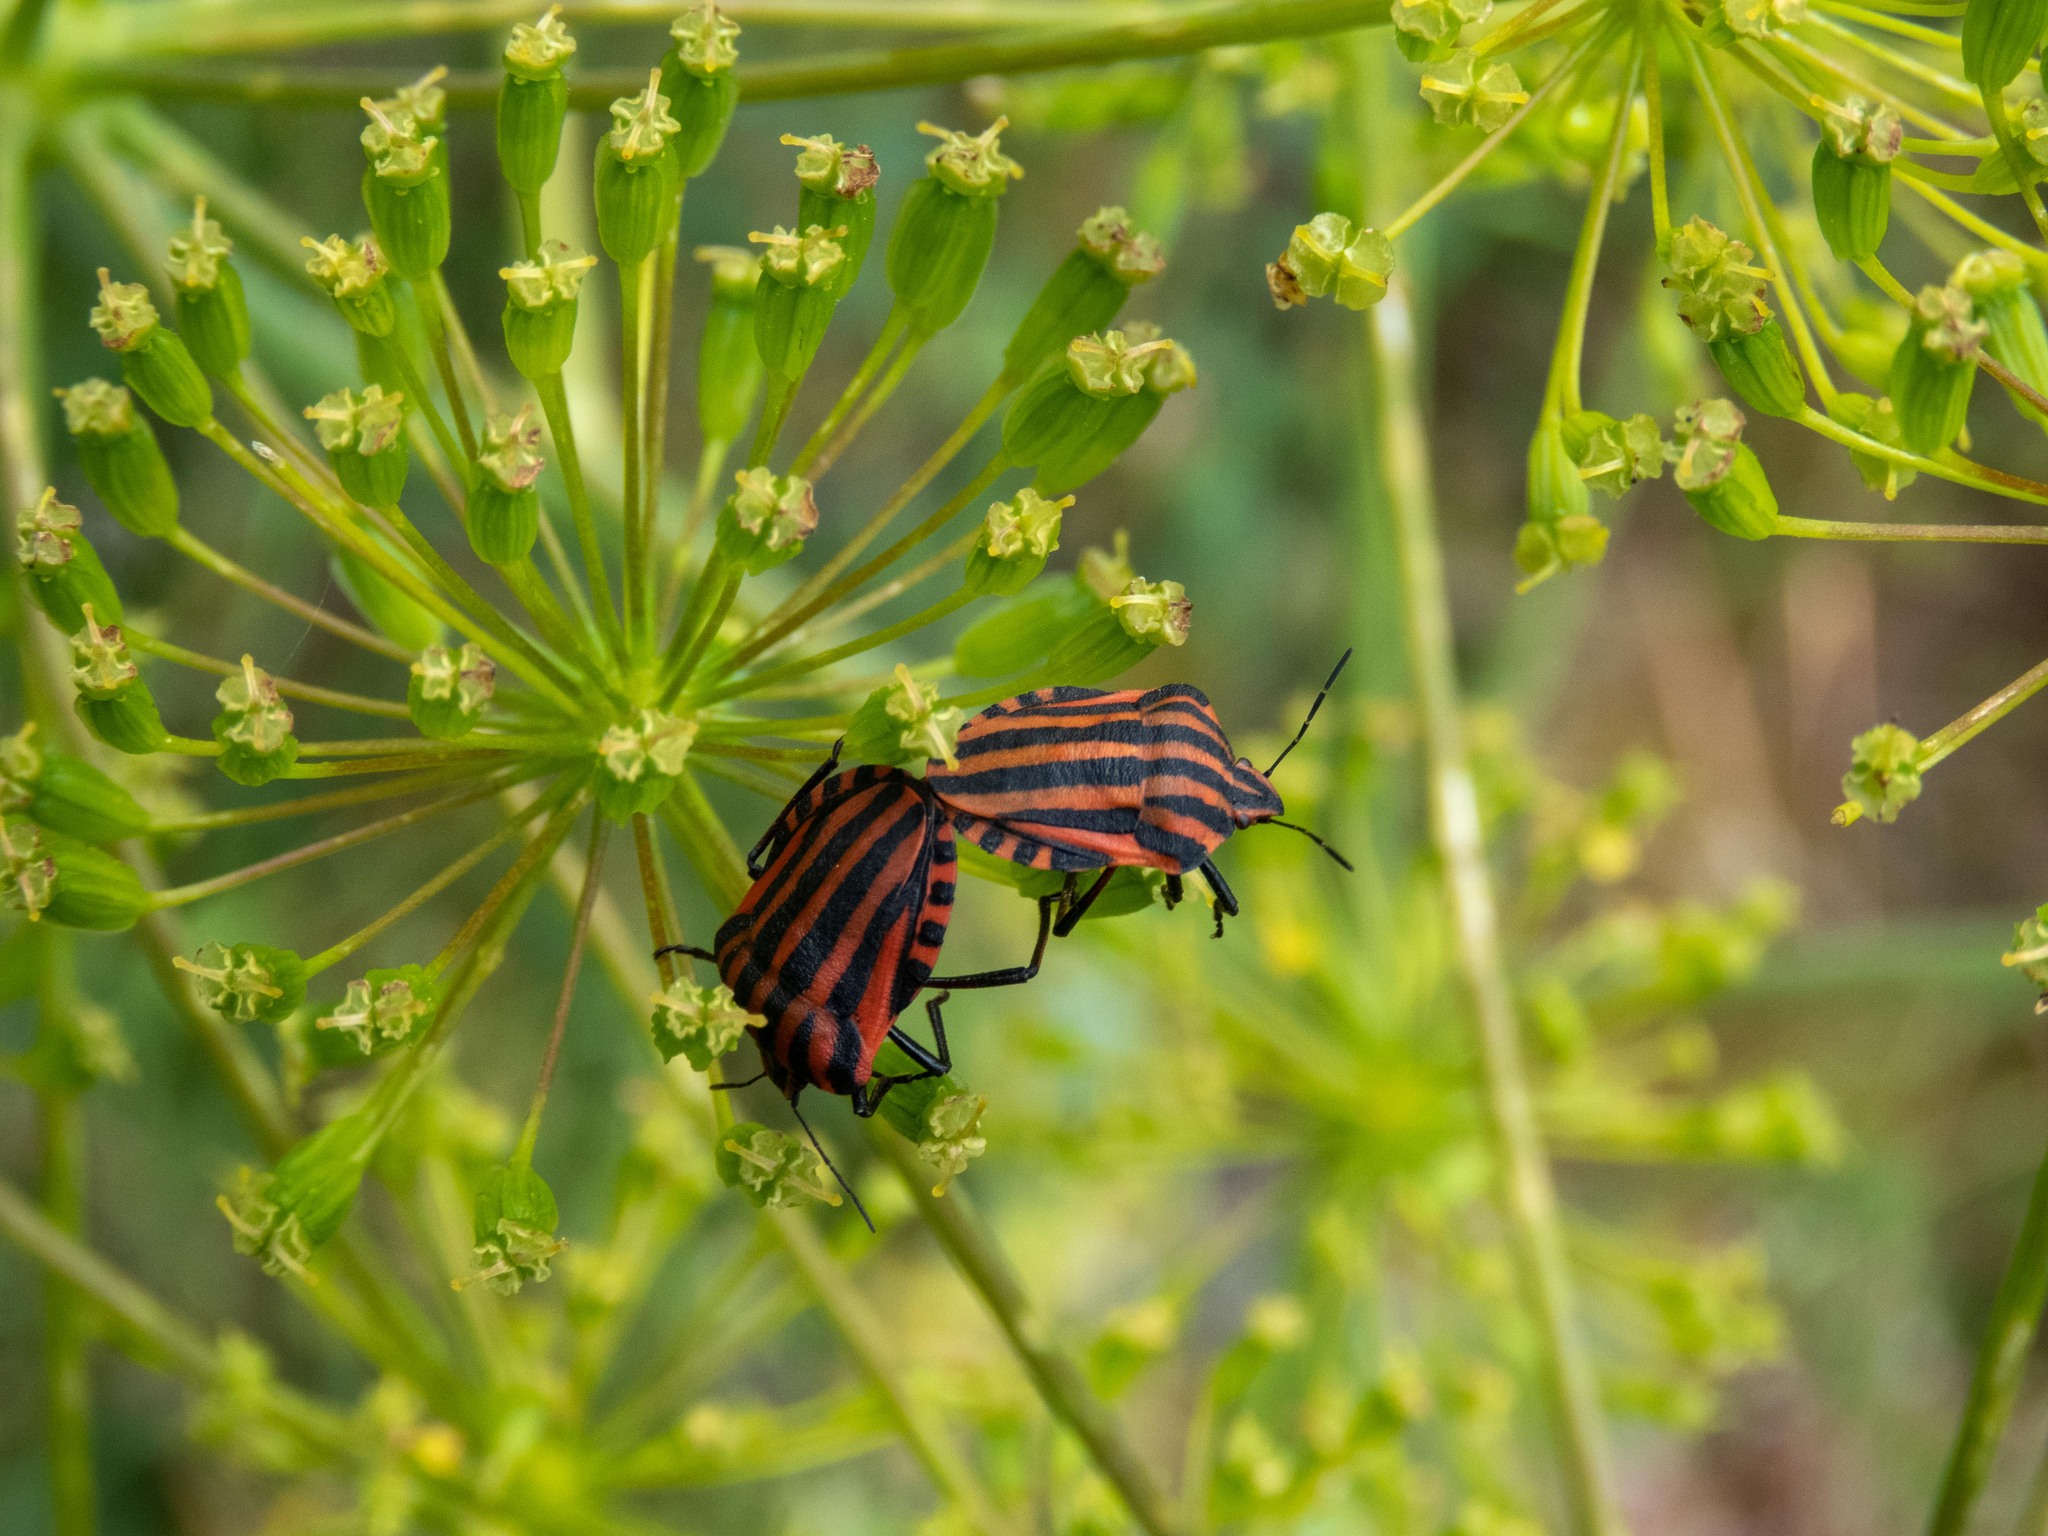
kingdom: Animalia
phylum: Arthropoda
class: Insecta
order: Hemiptera
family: Pentatomidae
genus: Graphosoma
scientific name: Graphosoma italicum
